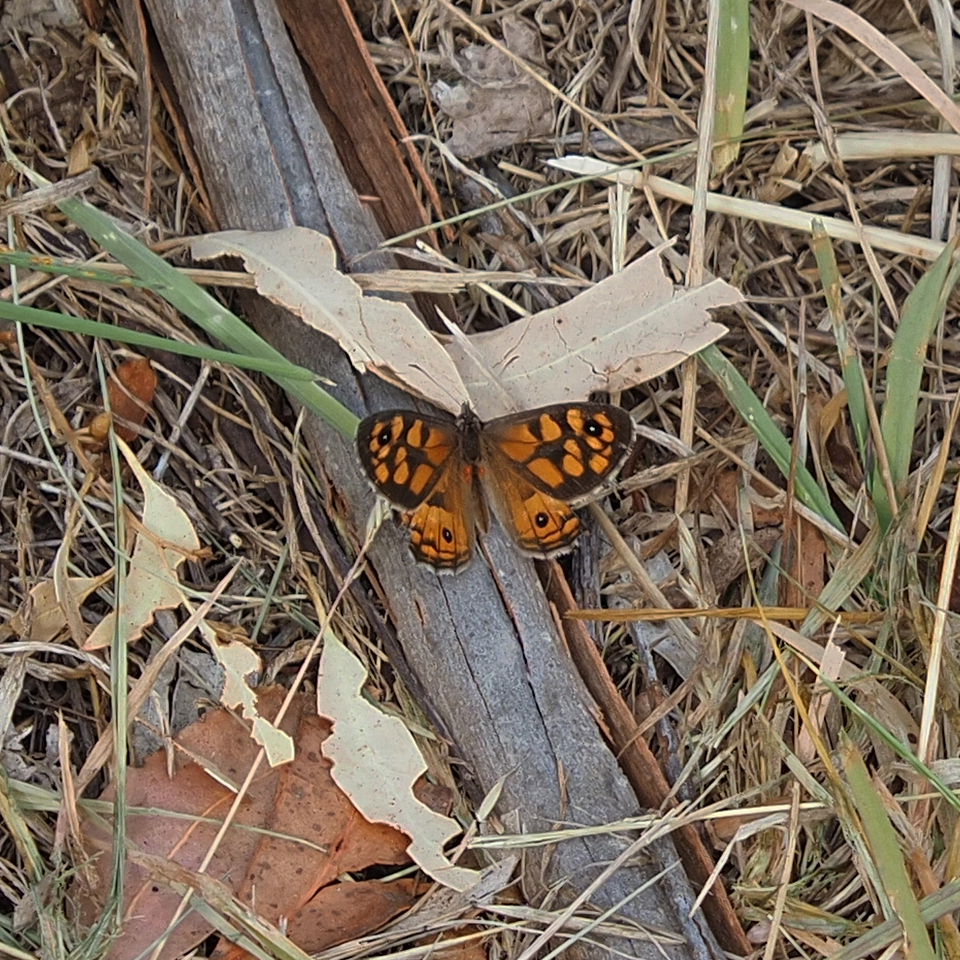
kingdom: Animalia
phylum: Arthropoda
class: Insecta
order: Lepidoptera
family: Nymphalidae
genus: Geitoneura
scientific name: Geitoneura klugii
